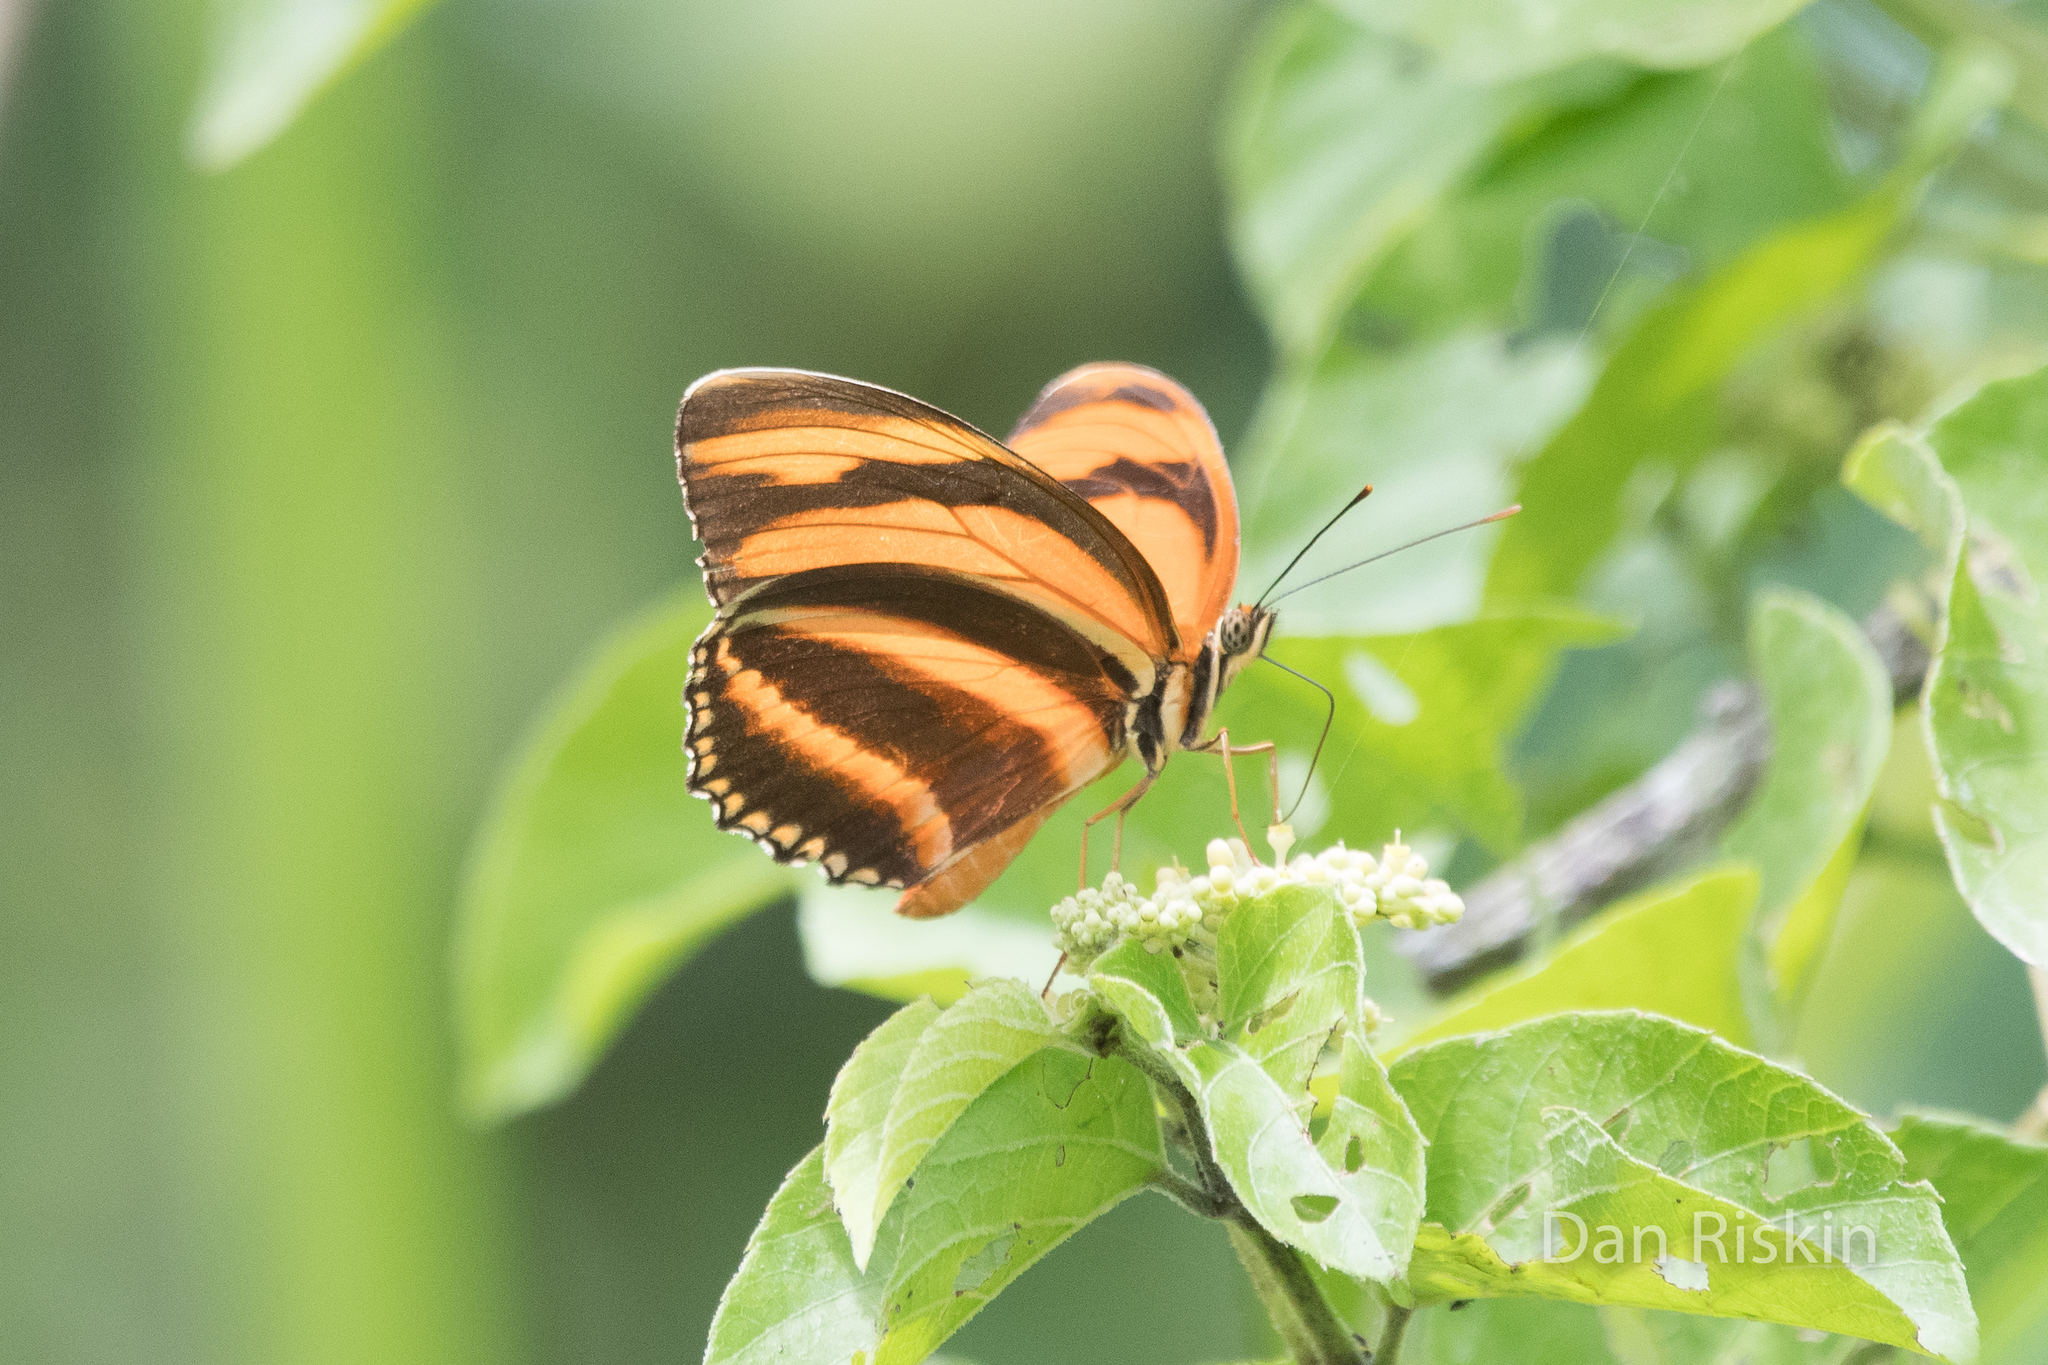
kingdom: Animalia
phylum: Arthropoda
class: Insecta
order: Lepidoptera
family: Nymphalidae
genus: Dryadula
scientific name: Dryadula phaetusa
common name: Banded orange heliconian
